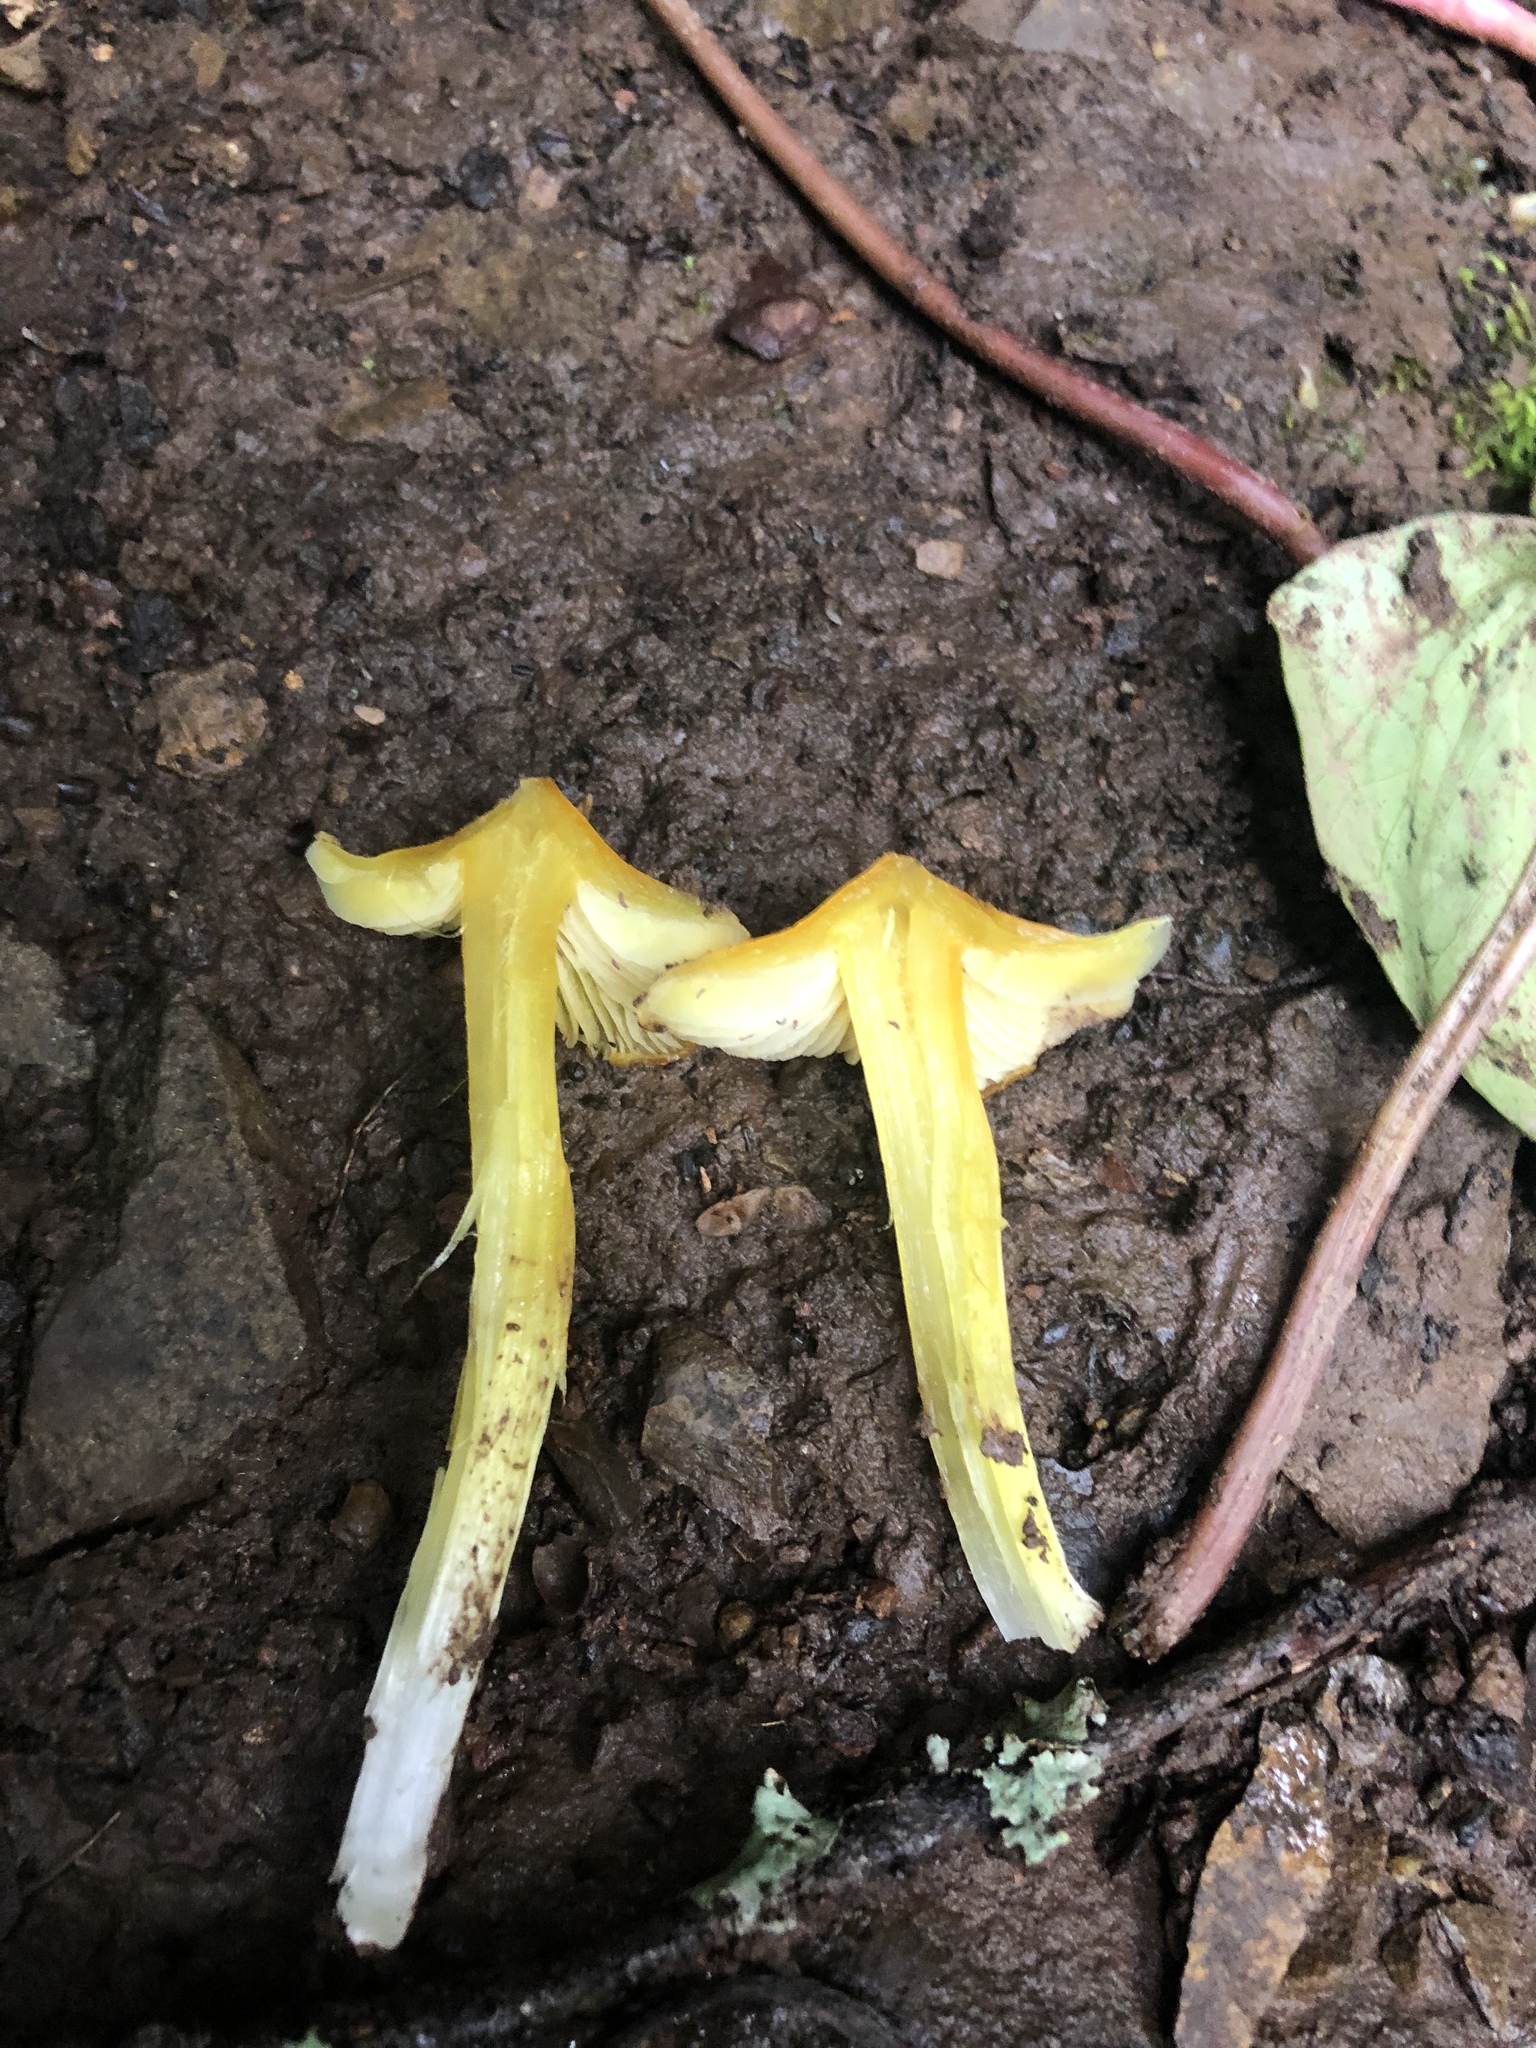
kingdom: Fungi
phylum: Basidiomycota
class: Agaricomycetes
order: Agaricales
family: Hygrophoraceae
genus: Hygrocybe
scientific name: Hygrocybe acutoconica
